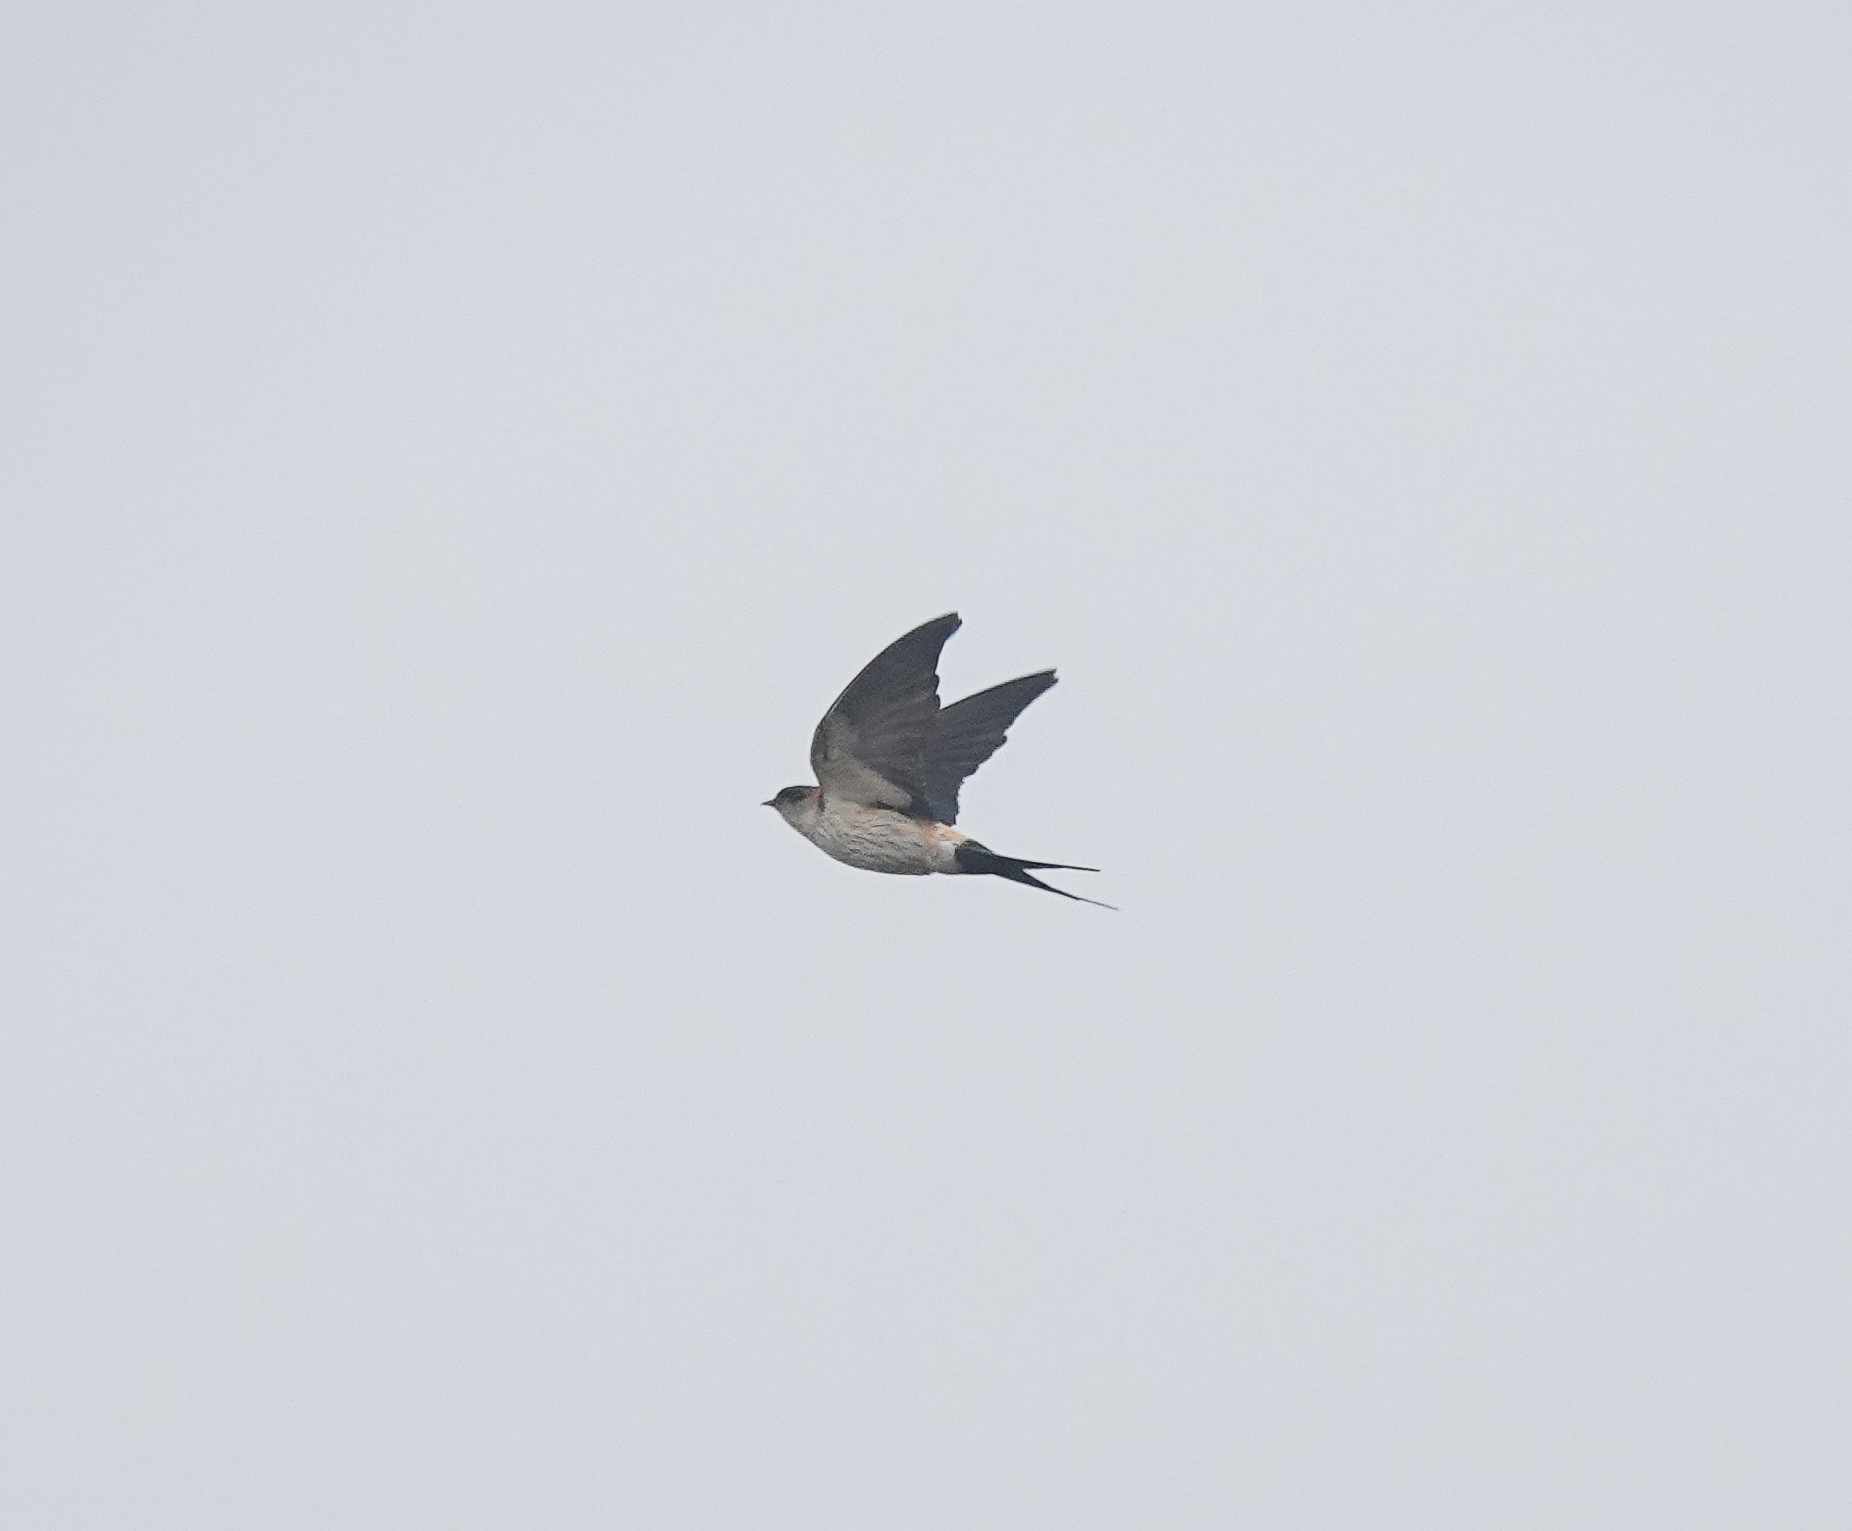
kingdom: Animalia
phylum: Chordata
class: Aves
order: Passeriformes
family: Hirundinidae
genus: Cecropis
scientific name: Cecropis daurica
